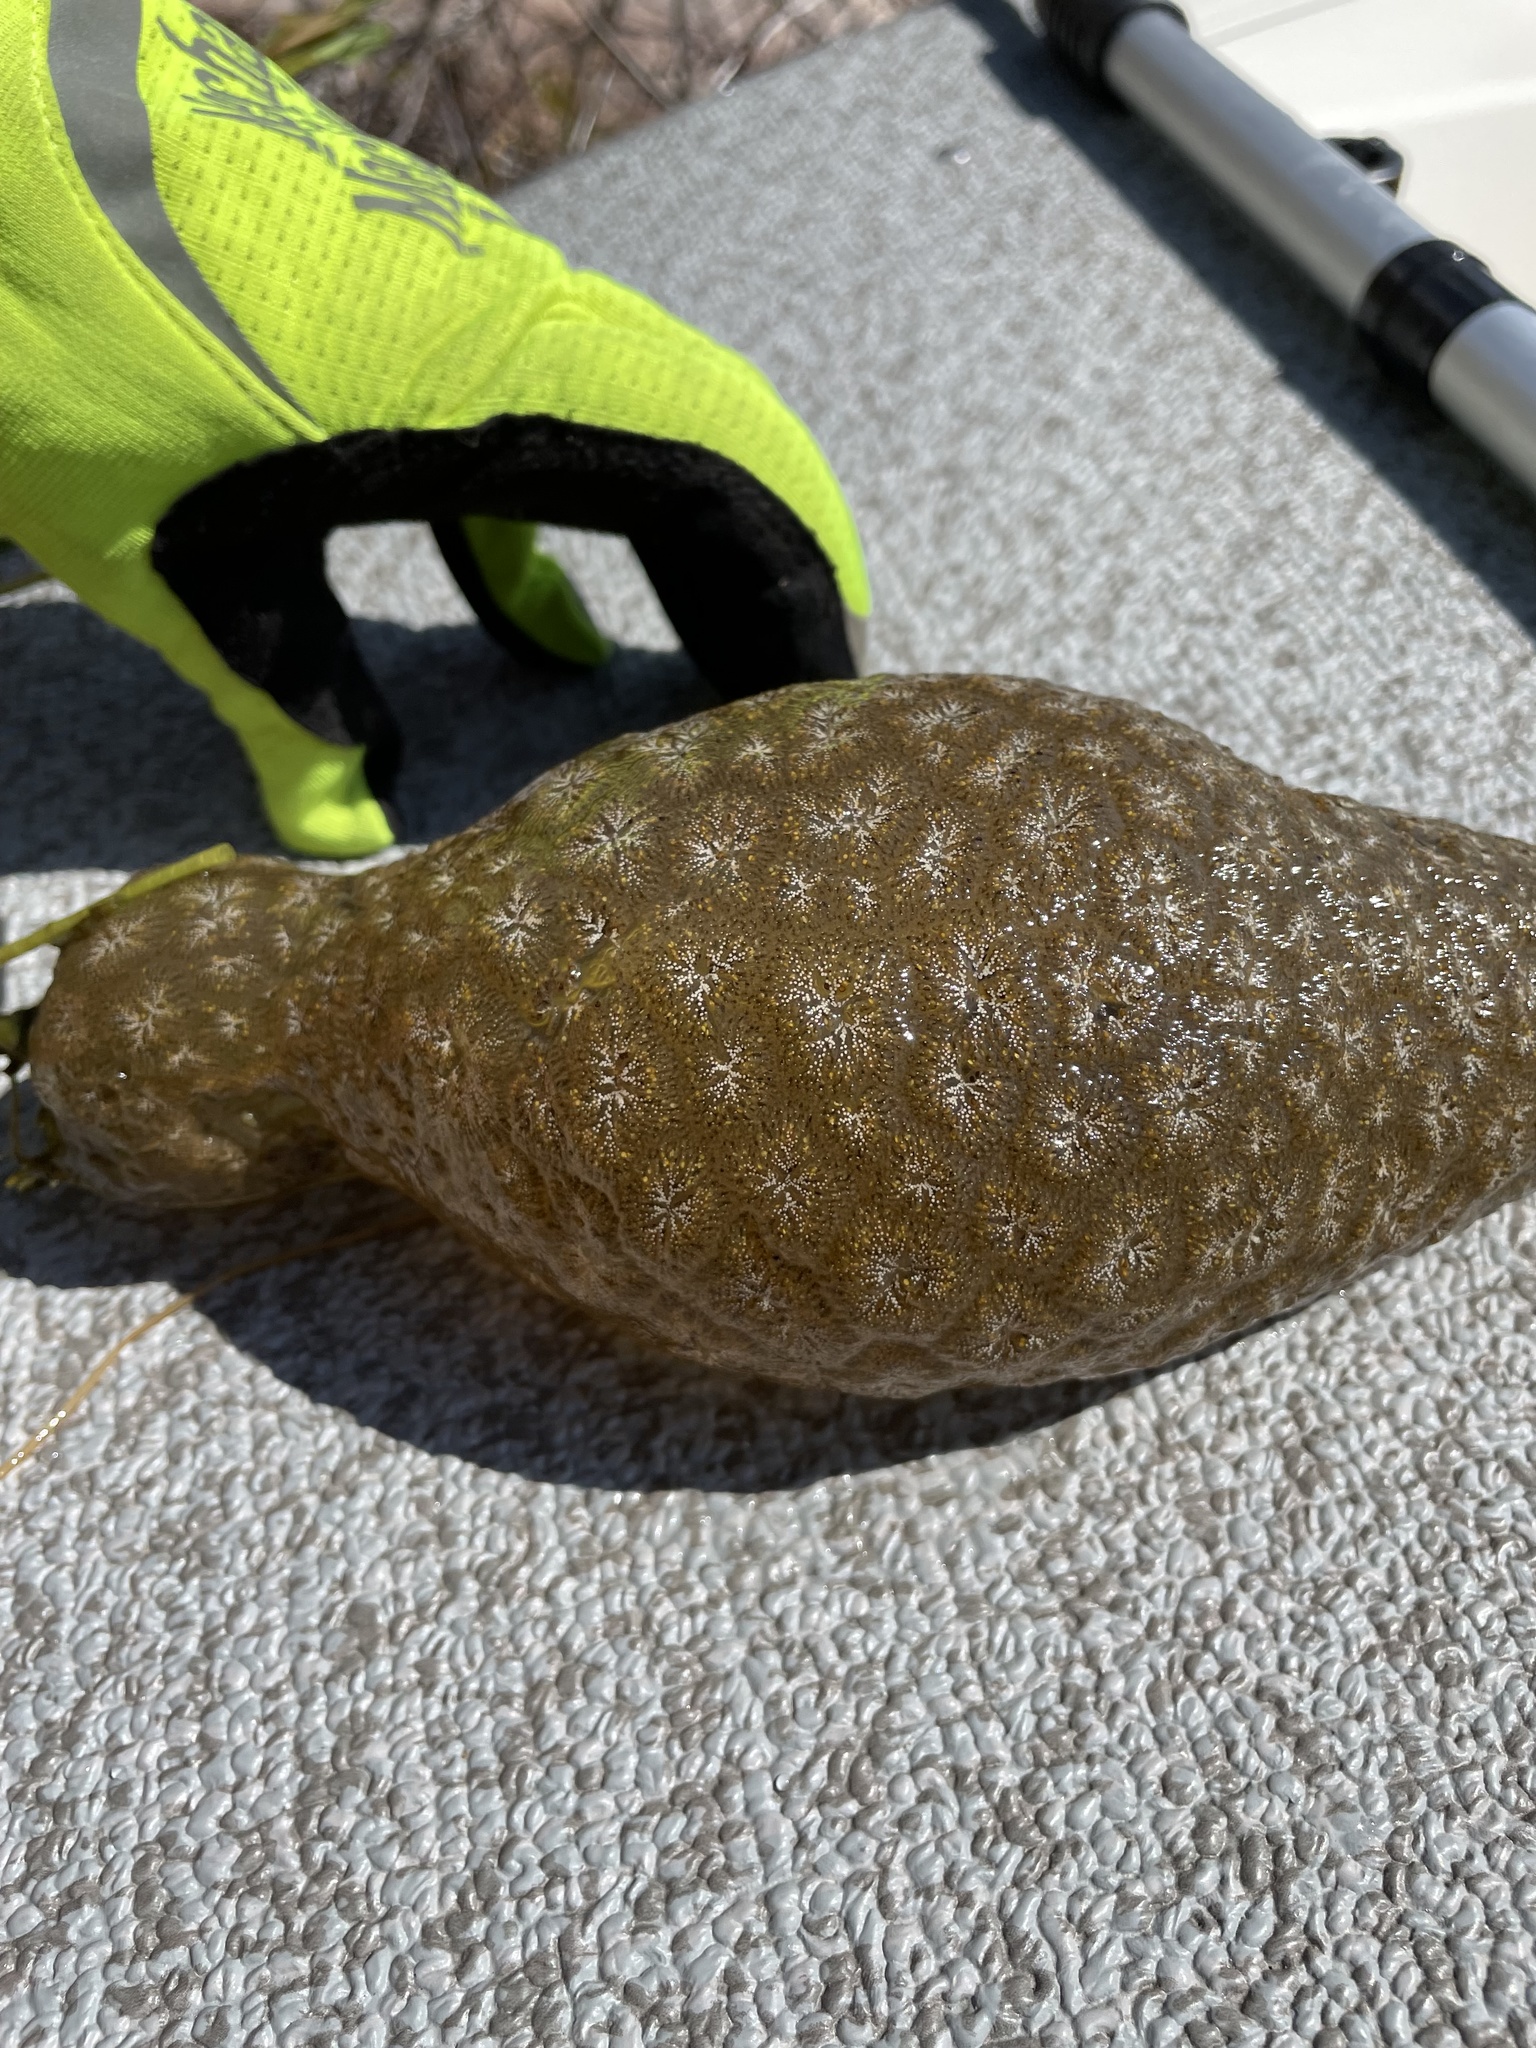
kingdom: Animalia
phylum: Bryozoa
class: Phylactolaemata
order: Plumatellida
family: Pectinatellidae
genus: Pectinatella
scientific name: Pectinatella magnifica
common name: Magnificent bryozoan
